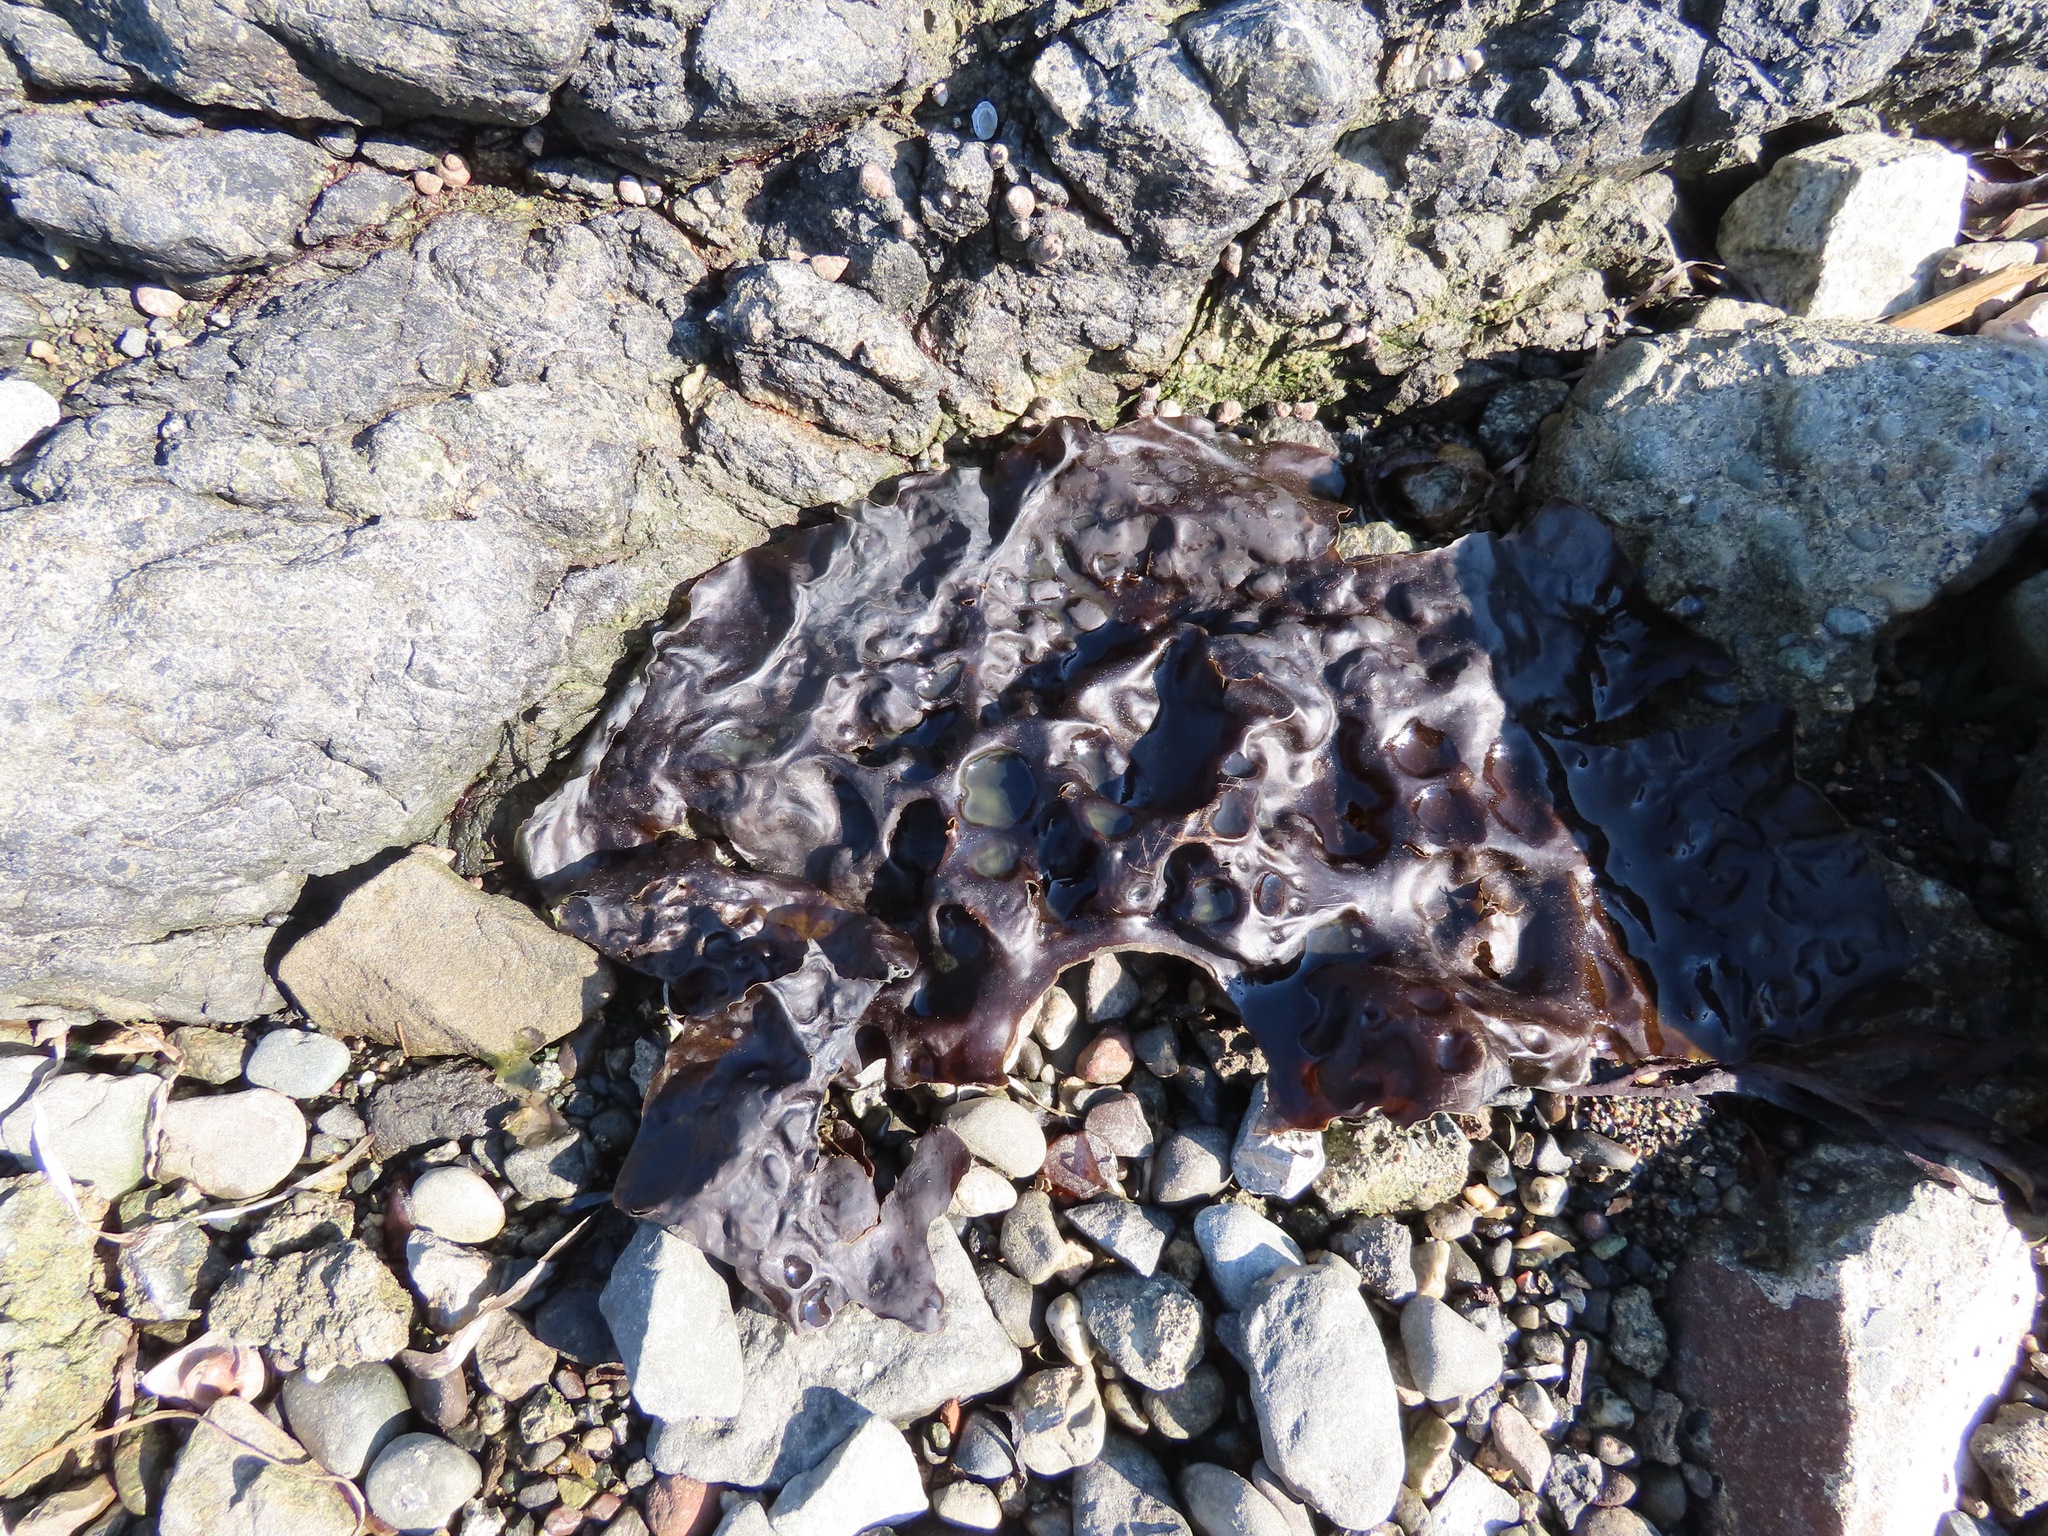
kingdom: Chromista
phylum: Ochrophyta
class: Phaeophyceae
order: Laminariales
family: Costariaceae
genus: Costaria
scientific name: Costaria costata
